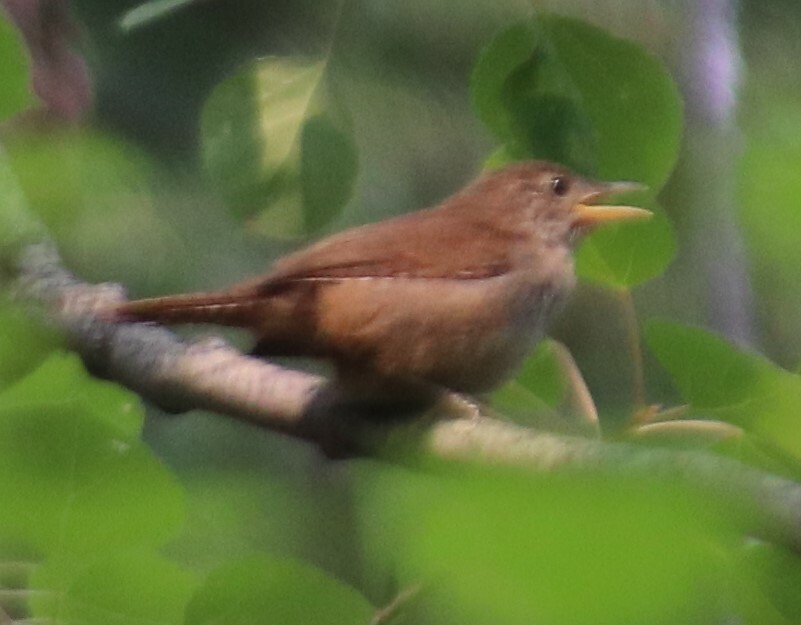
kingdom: Animalia
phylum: Chordata
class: Aves
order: Passeriformes
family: Troglodytidae
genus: Troglodytes
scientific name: Troglodytes aedon
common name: House wren
